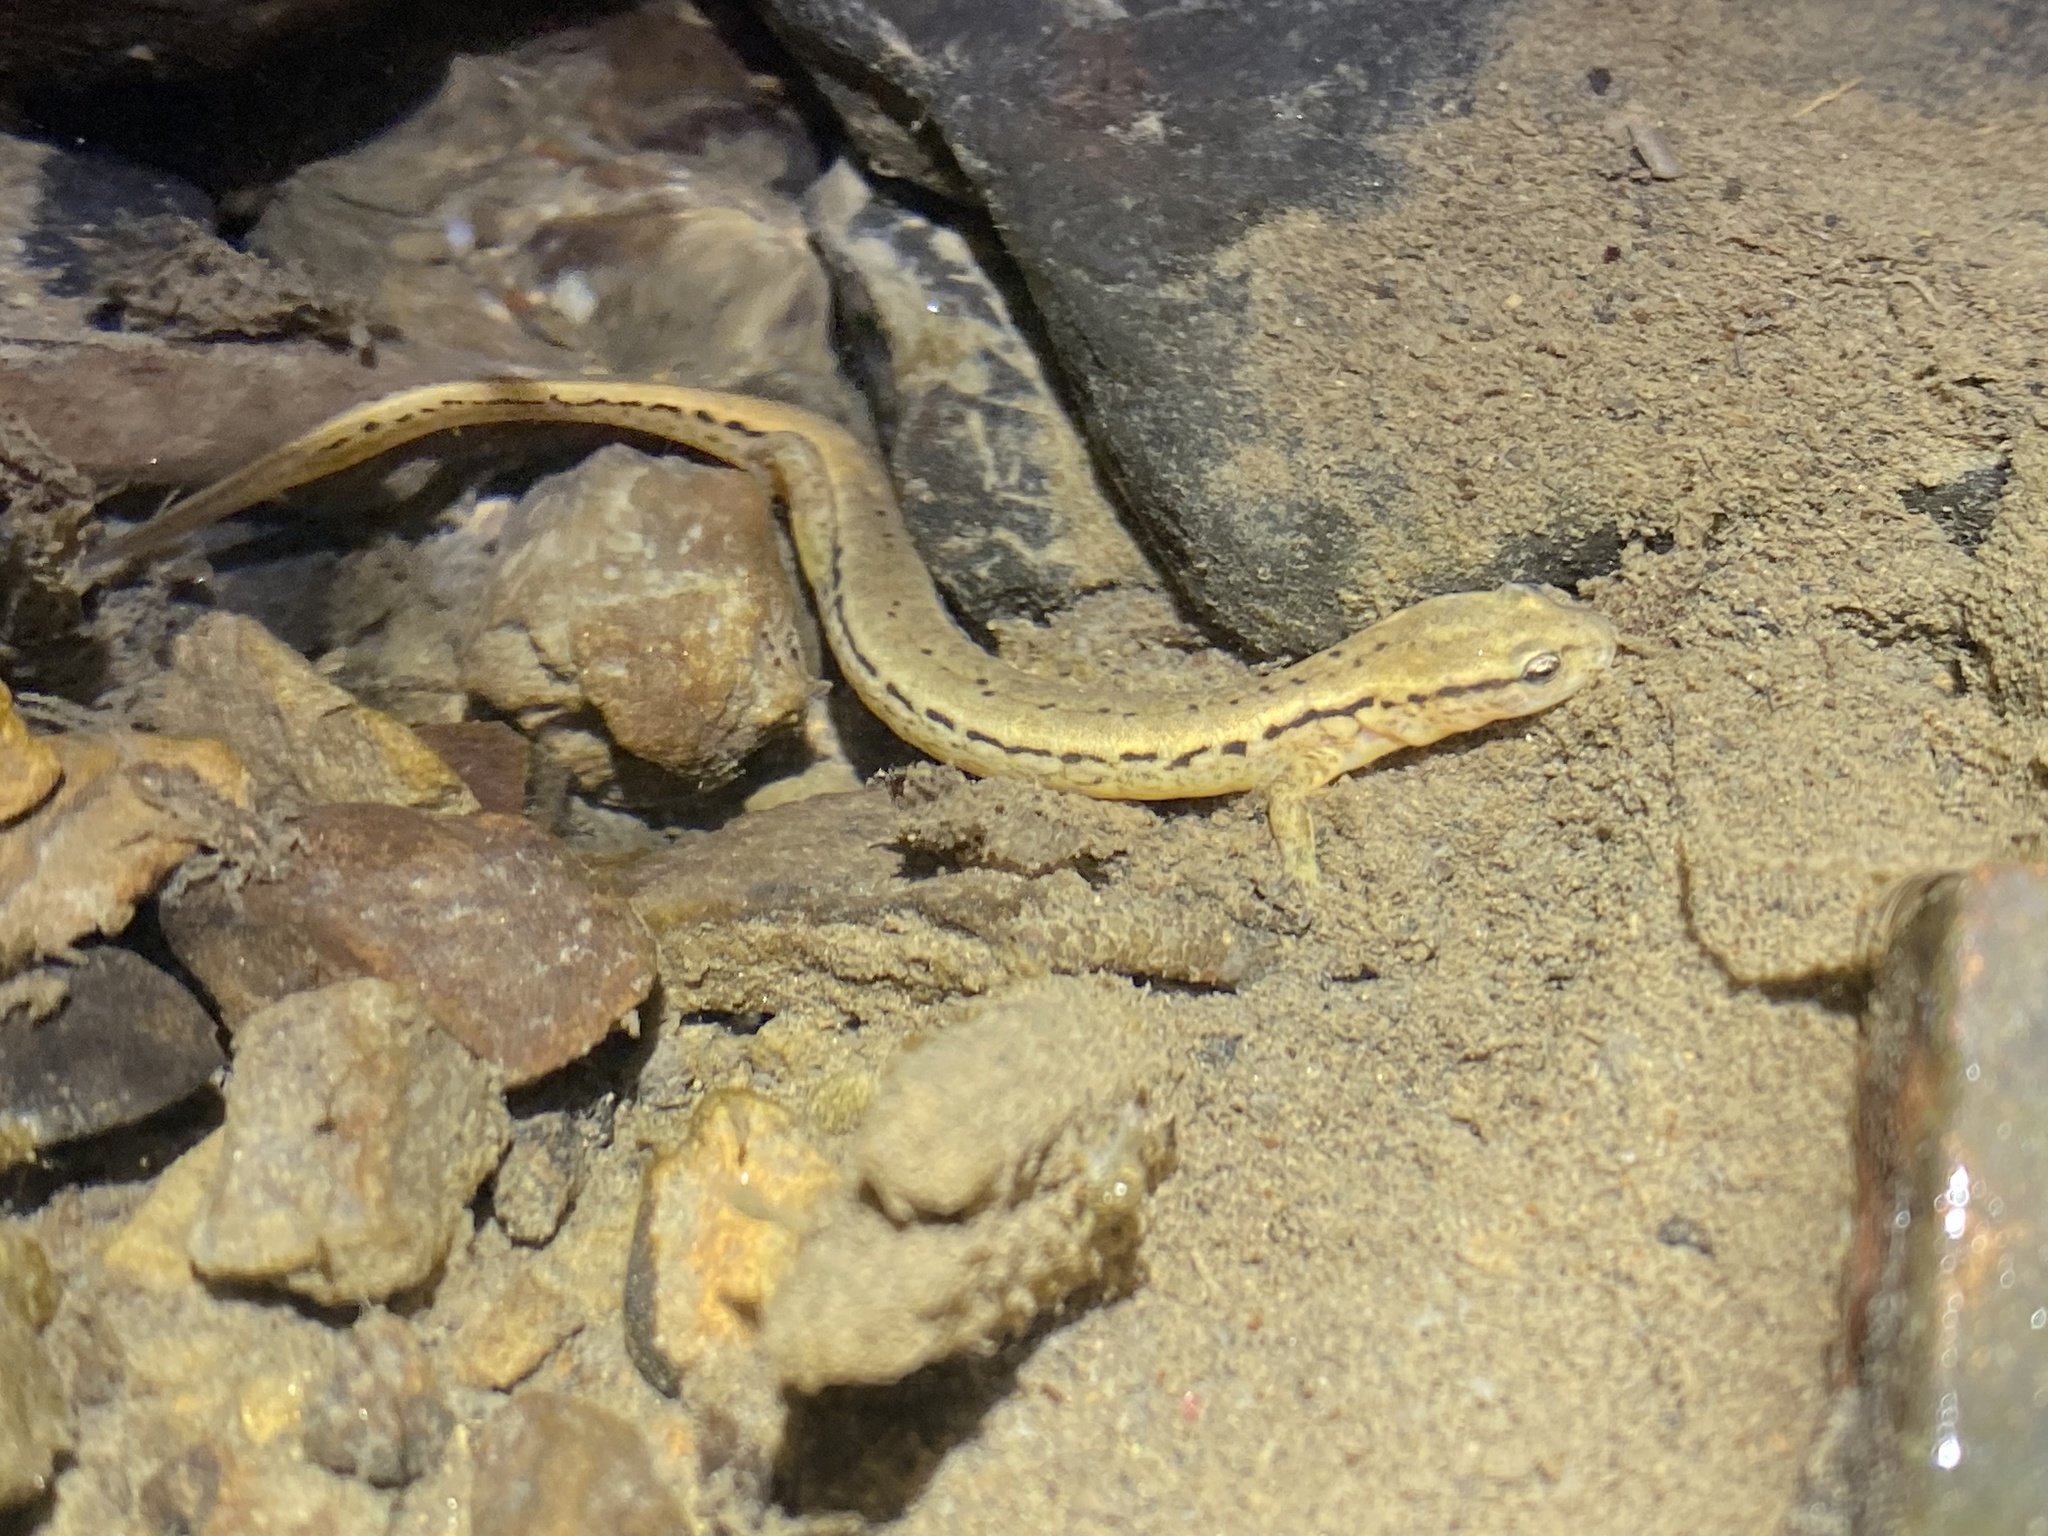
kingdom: Animalia
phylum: Chordata
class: Amphibia
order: Caudata
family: Plethodontidae
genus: Eurycea
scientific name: Eurycea bislineata
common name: Northern two-lined salamander
